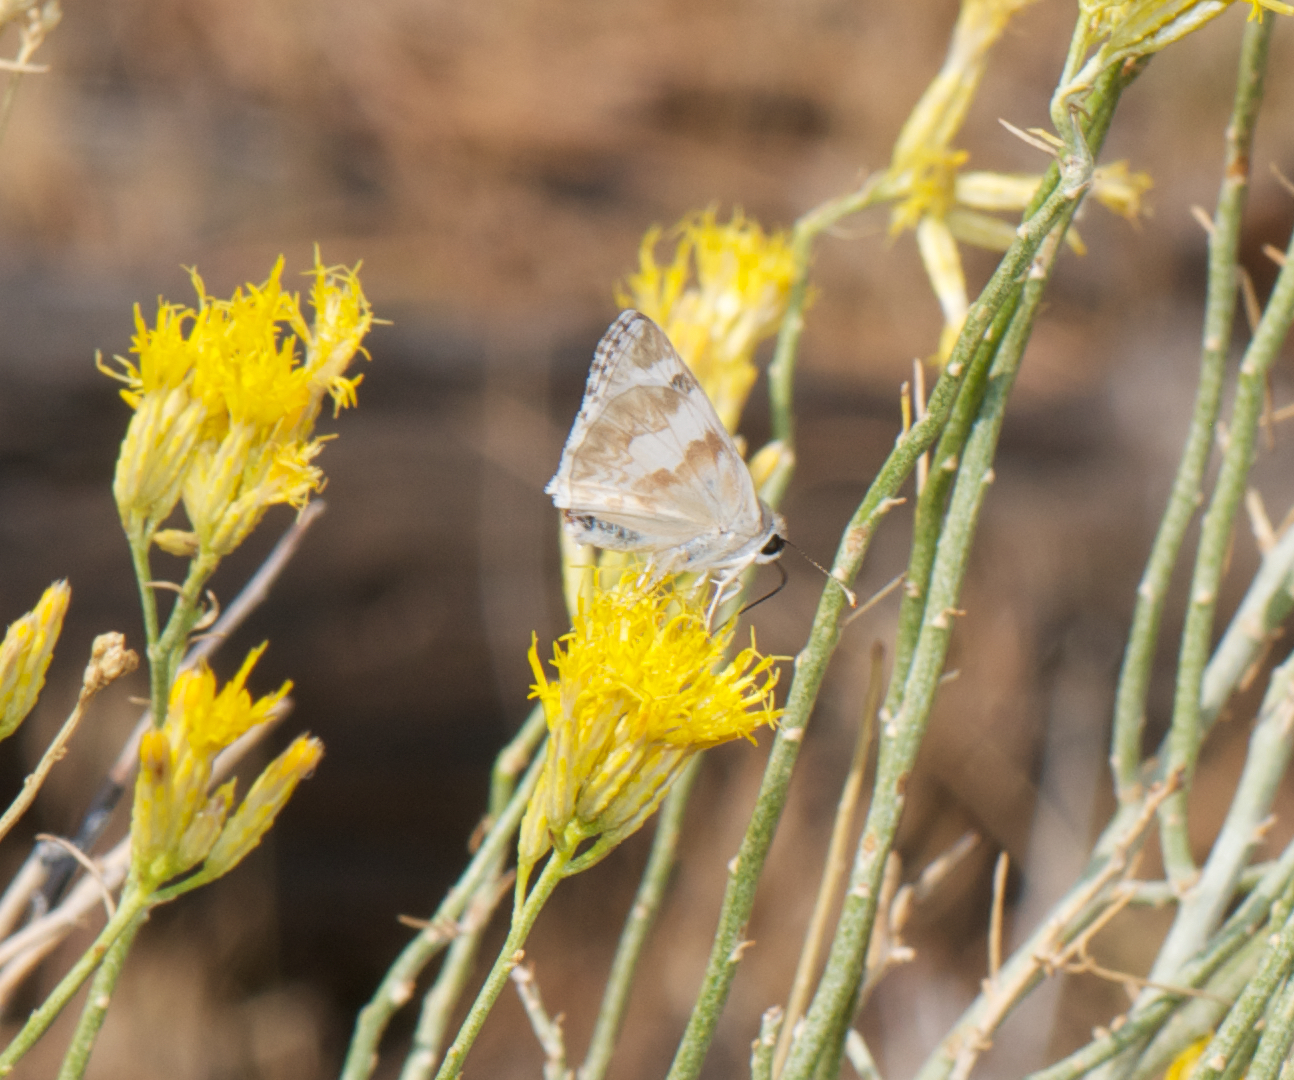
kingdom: Animalia
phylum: Arthropoda
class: Insecta
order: Lepidoptera
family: Hesperiidae
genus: Heliopetes
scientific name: Heliopetes ericetorum
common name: Northern white-skipper
